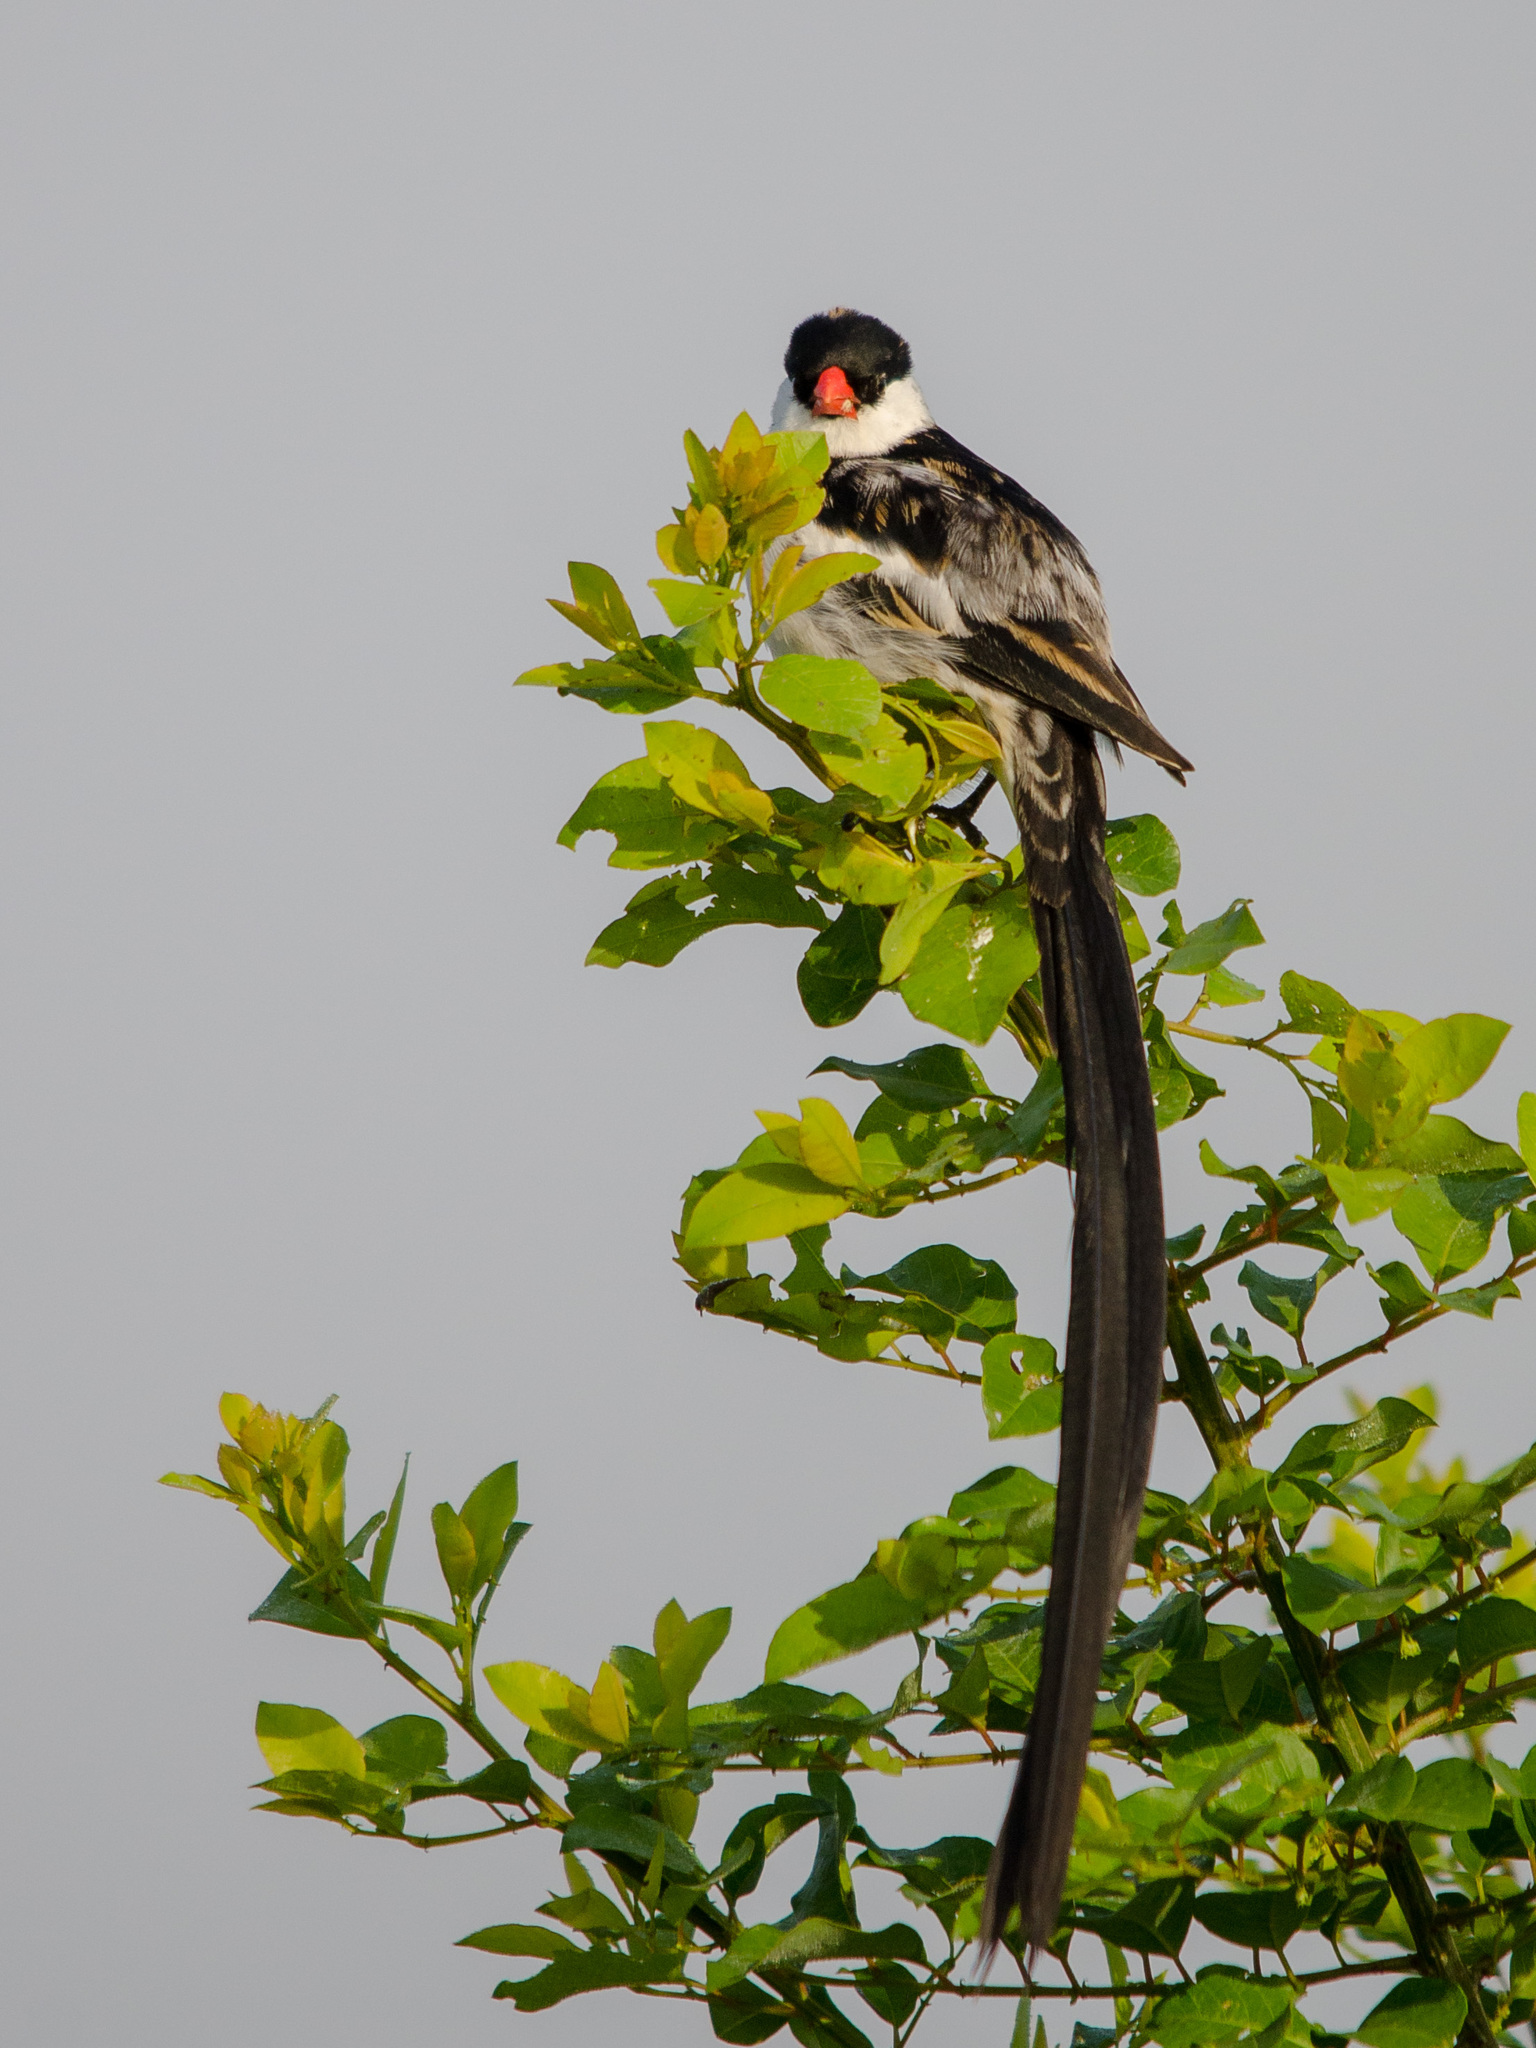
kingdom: Animalia
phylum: Chordata
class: Aves
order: Passeriformes
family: Viduidae
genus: Vidua
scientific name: Vidua macroura
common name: Pin-tailed whydah
